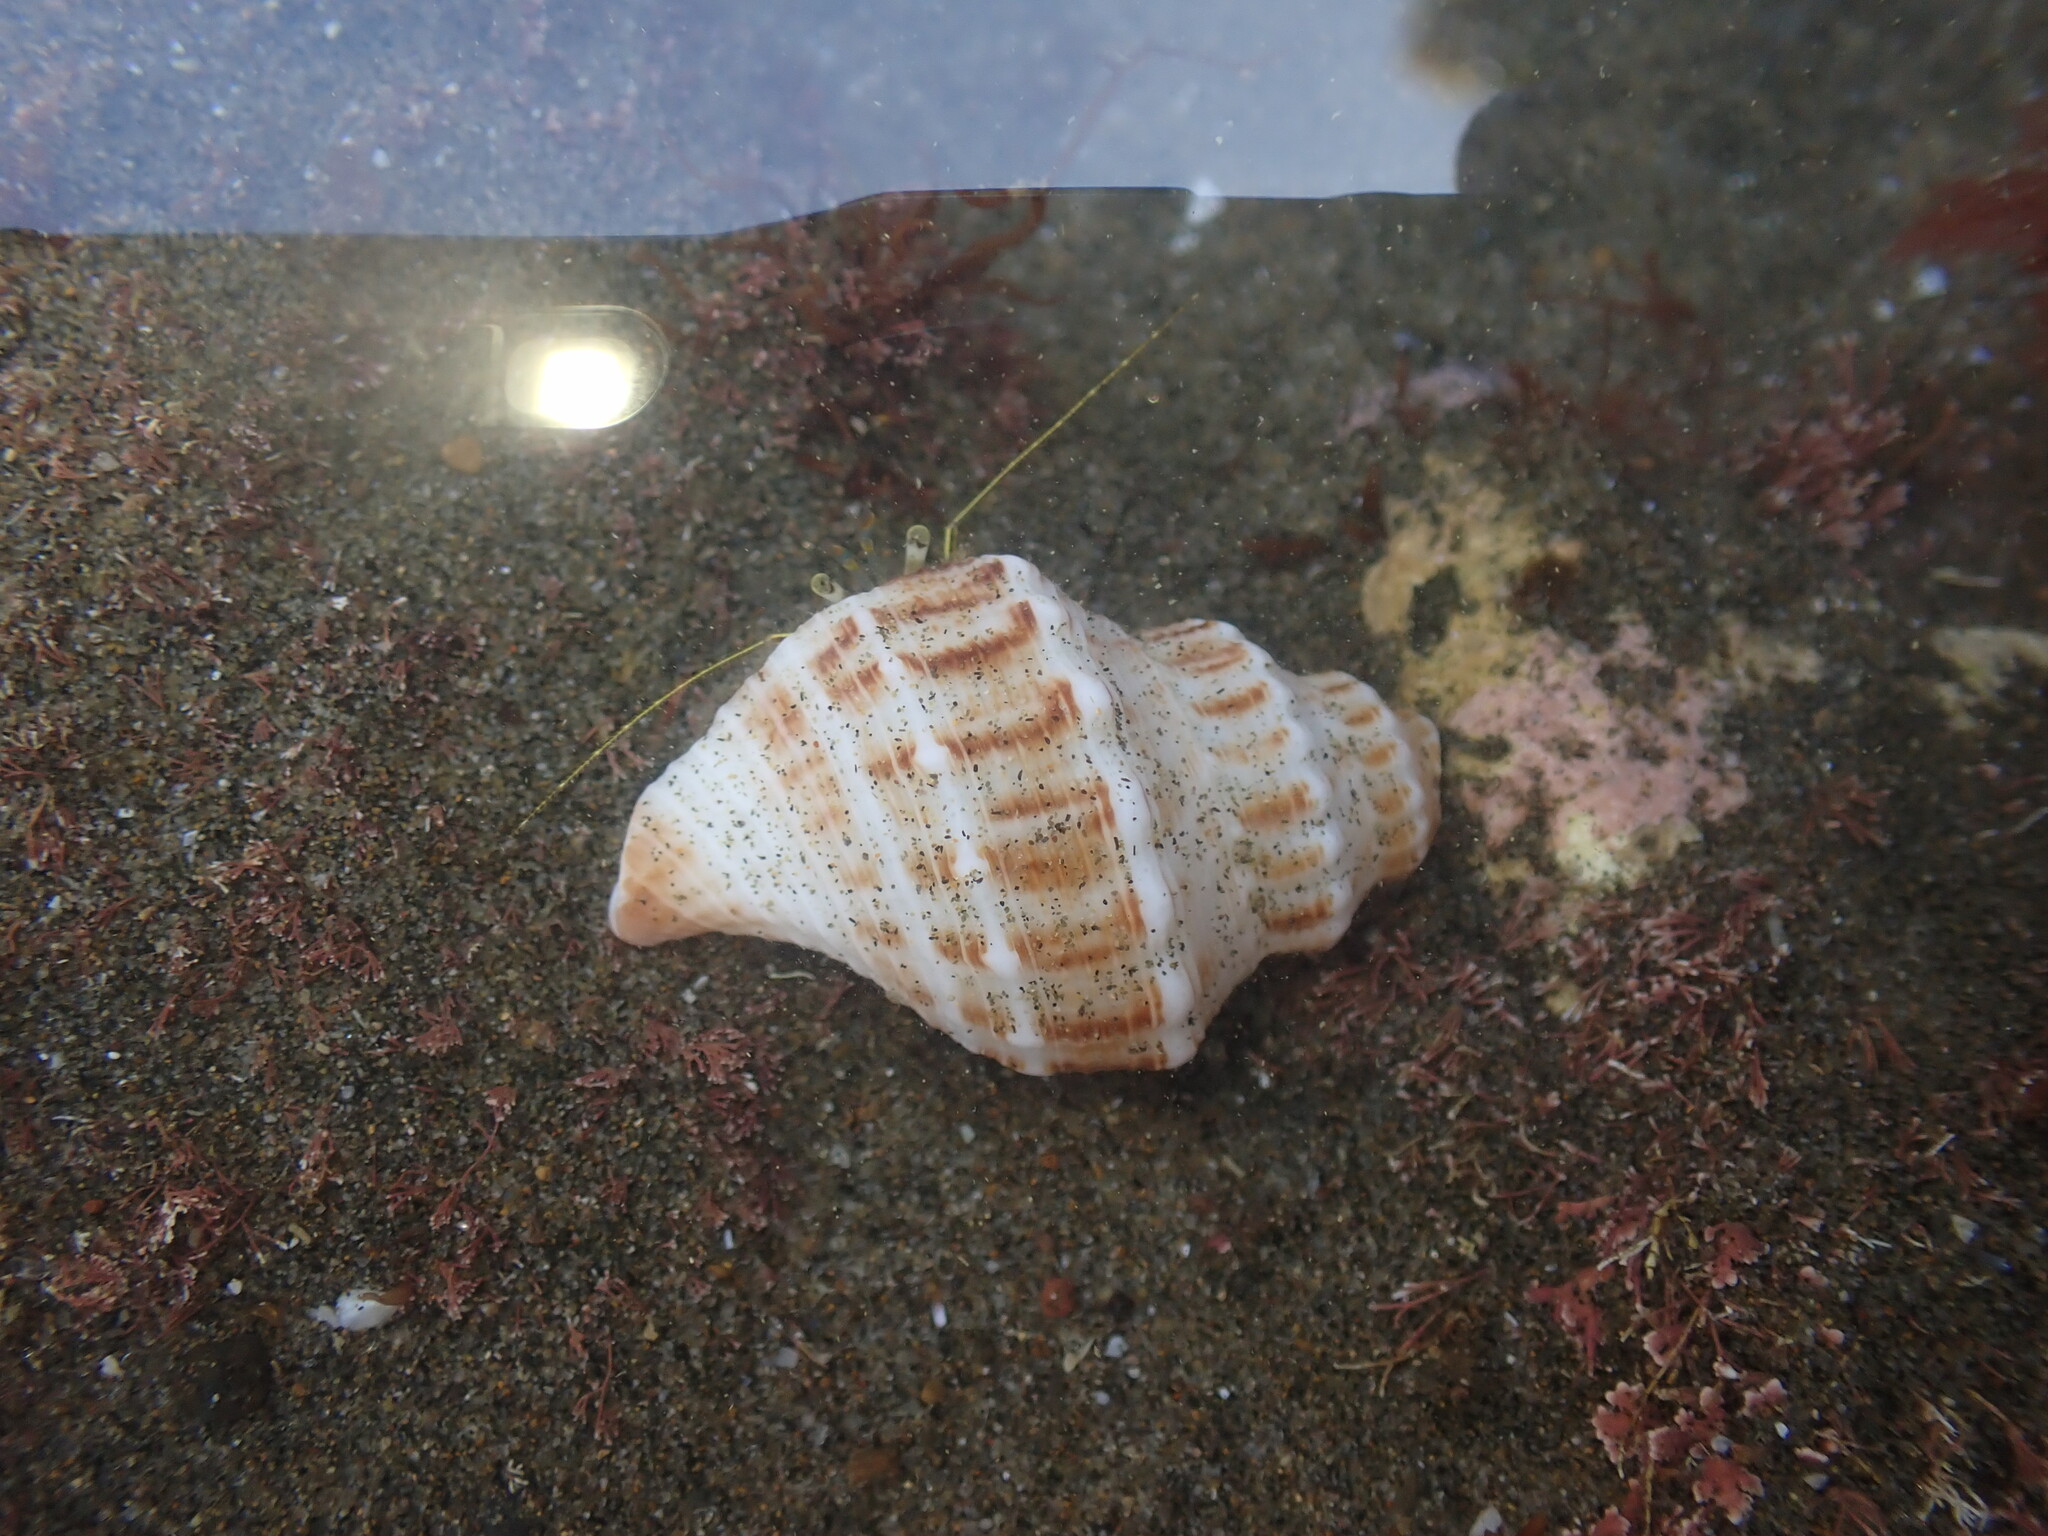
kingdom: Animalia
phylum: Mollusca
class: Gastropoda
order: Neogastropoda
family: Prosiphonidae
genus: Austrofusus
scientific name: Austrofusus glans
